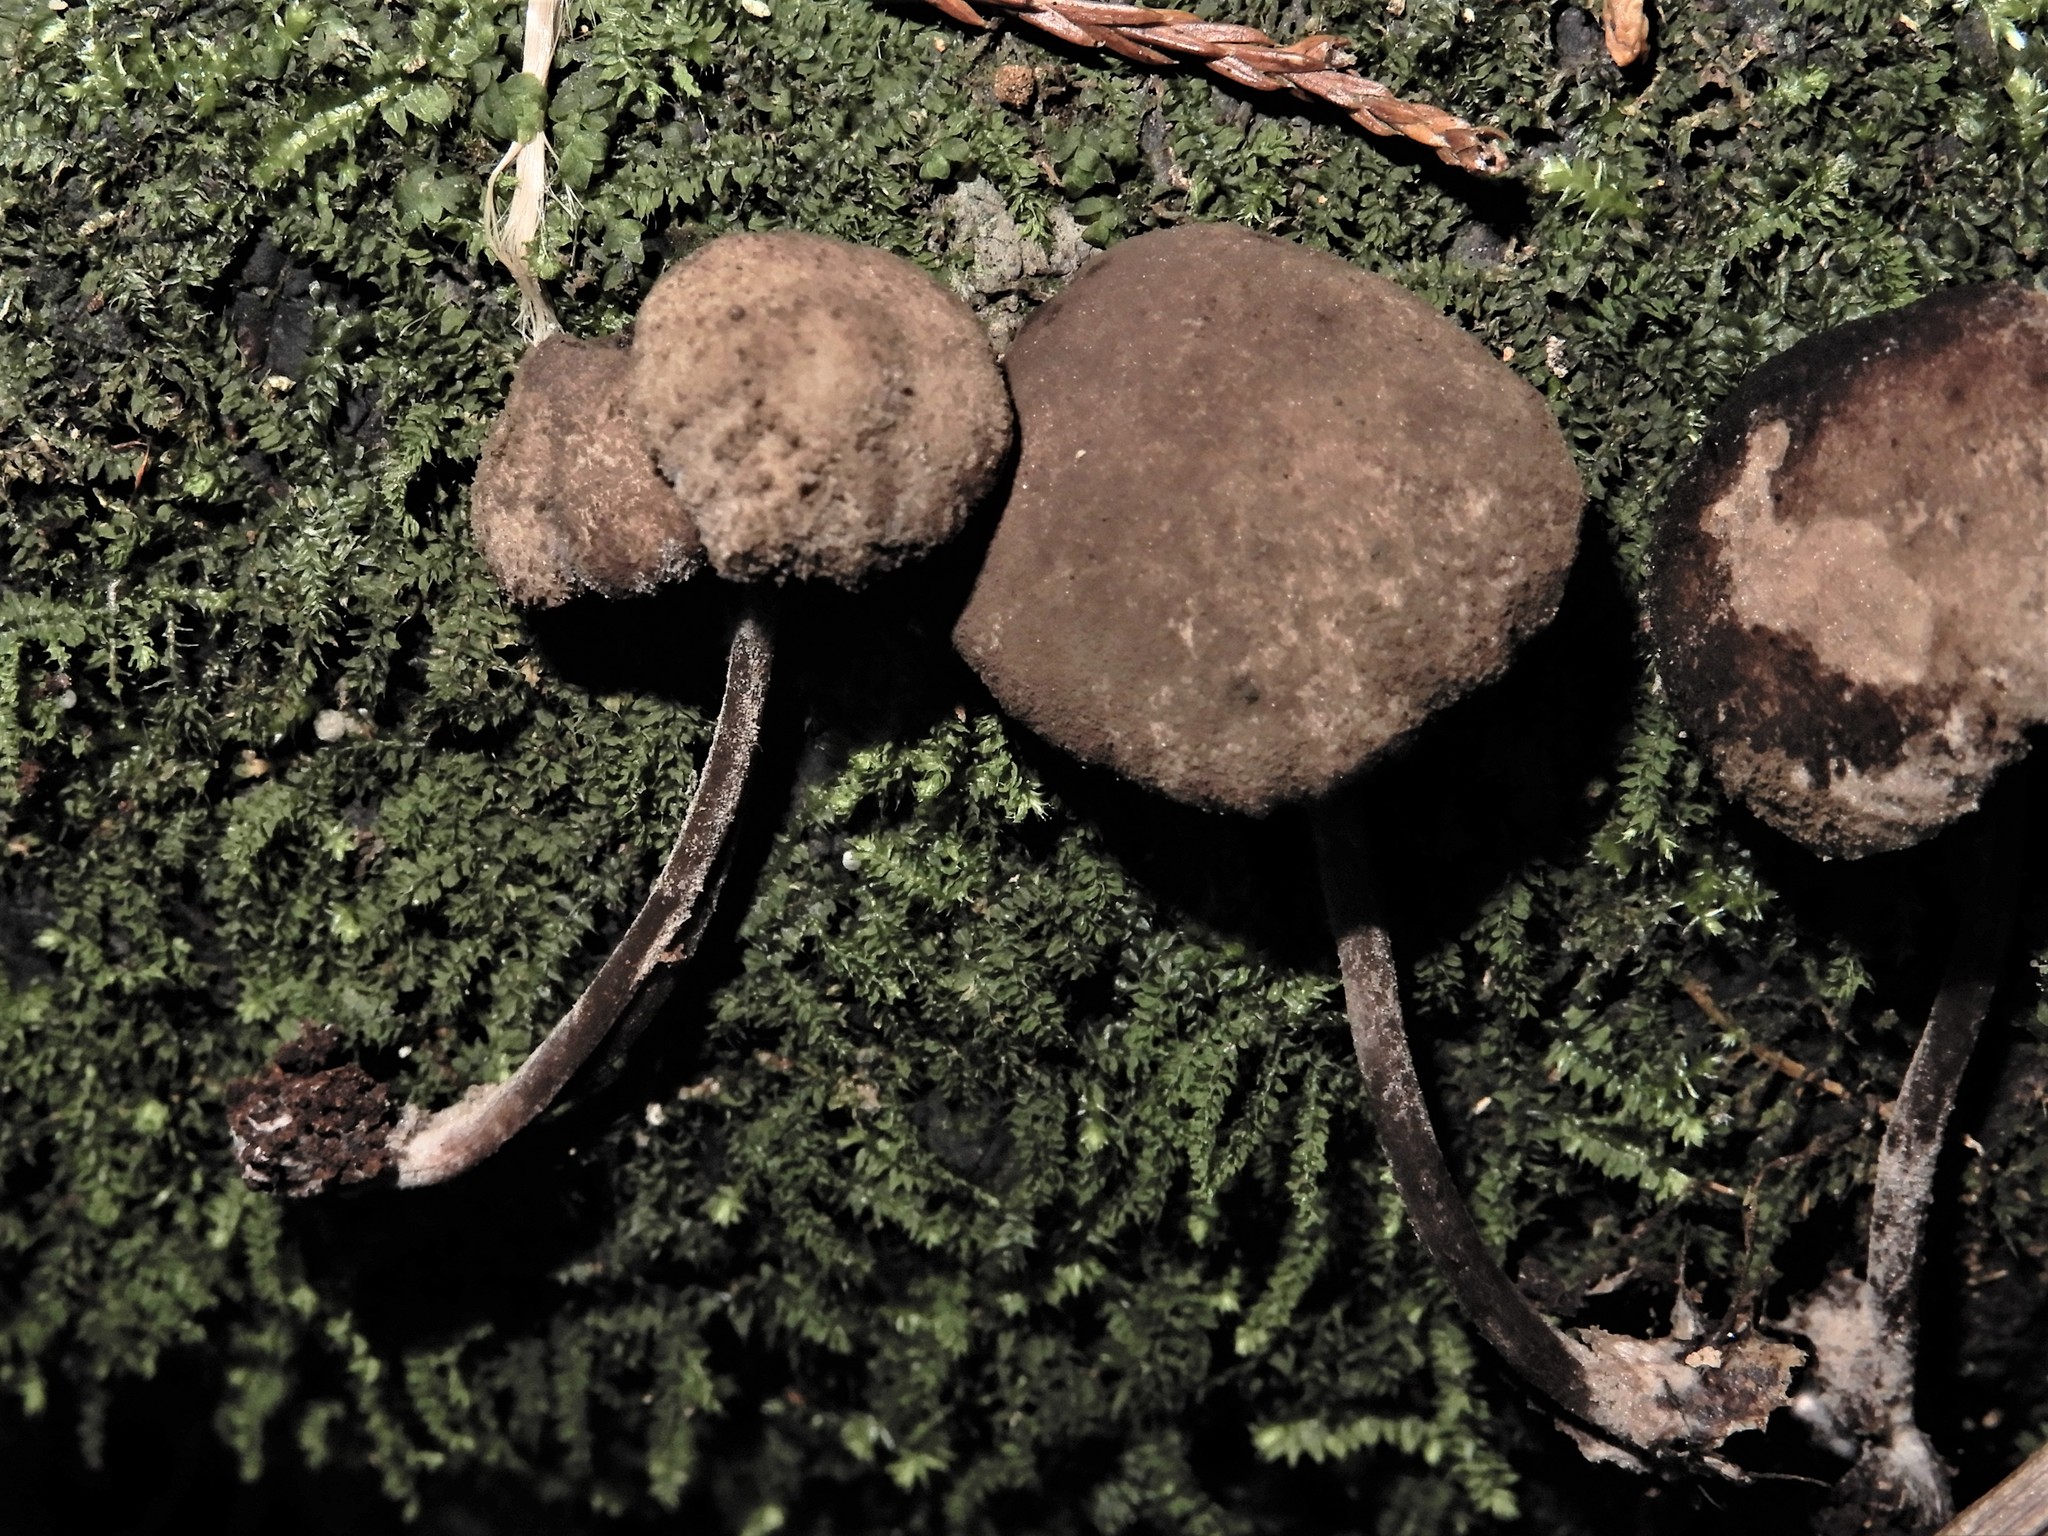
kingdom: Fungi
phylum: Basidiomycota
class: Agaricomycetes
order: Agaricales
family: Agaricaceae
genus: Melanophyllum
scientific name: Melanophyllum
